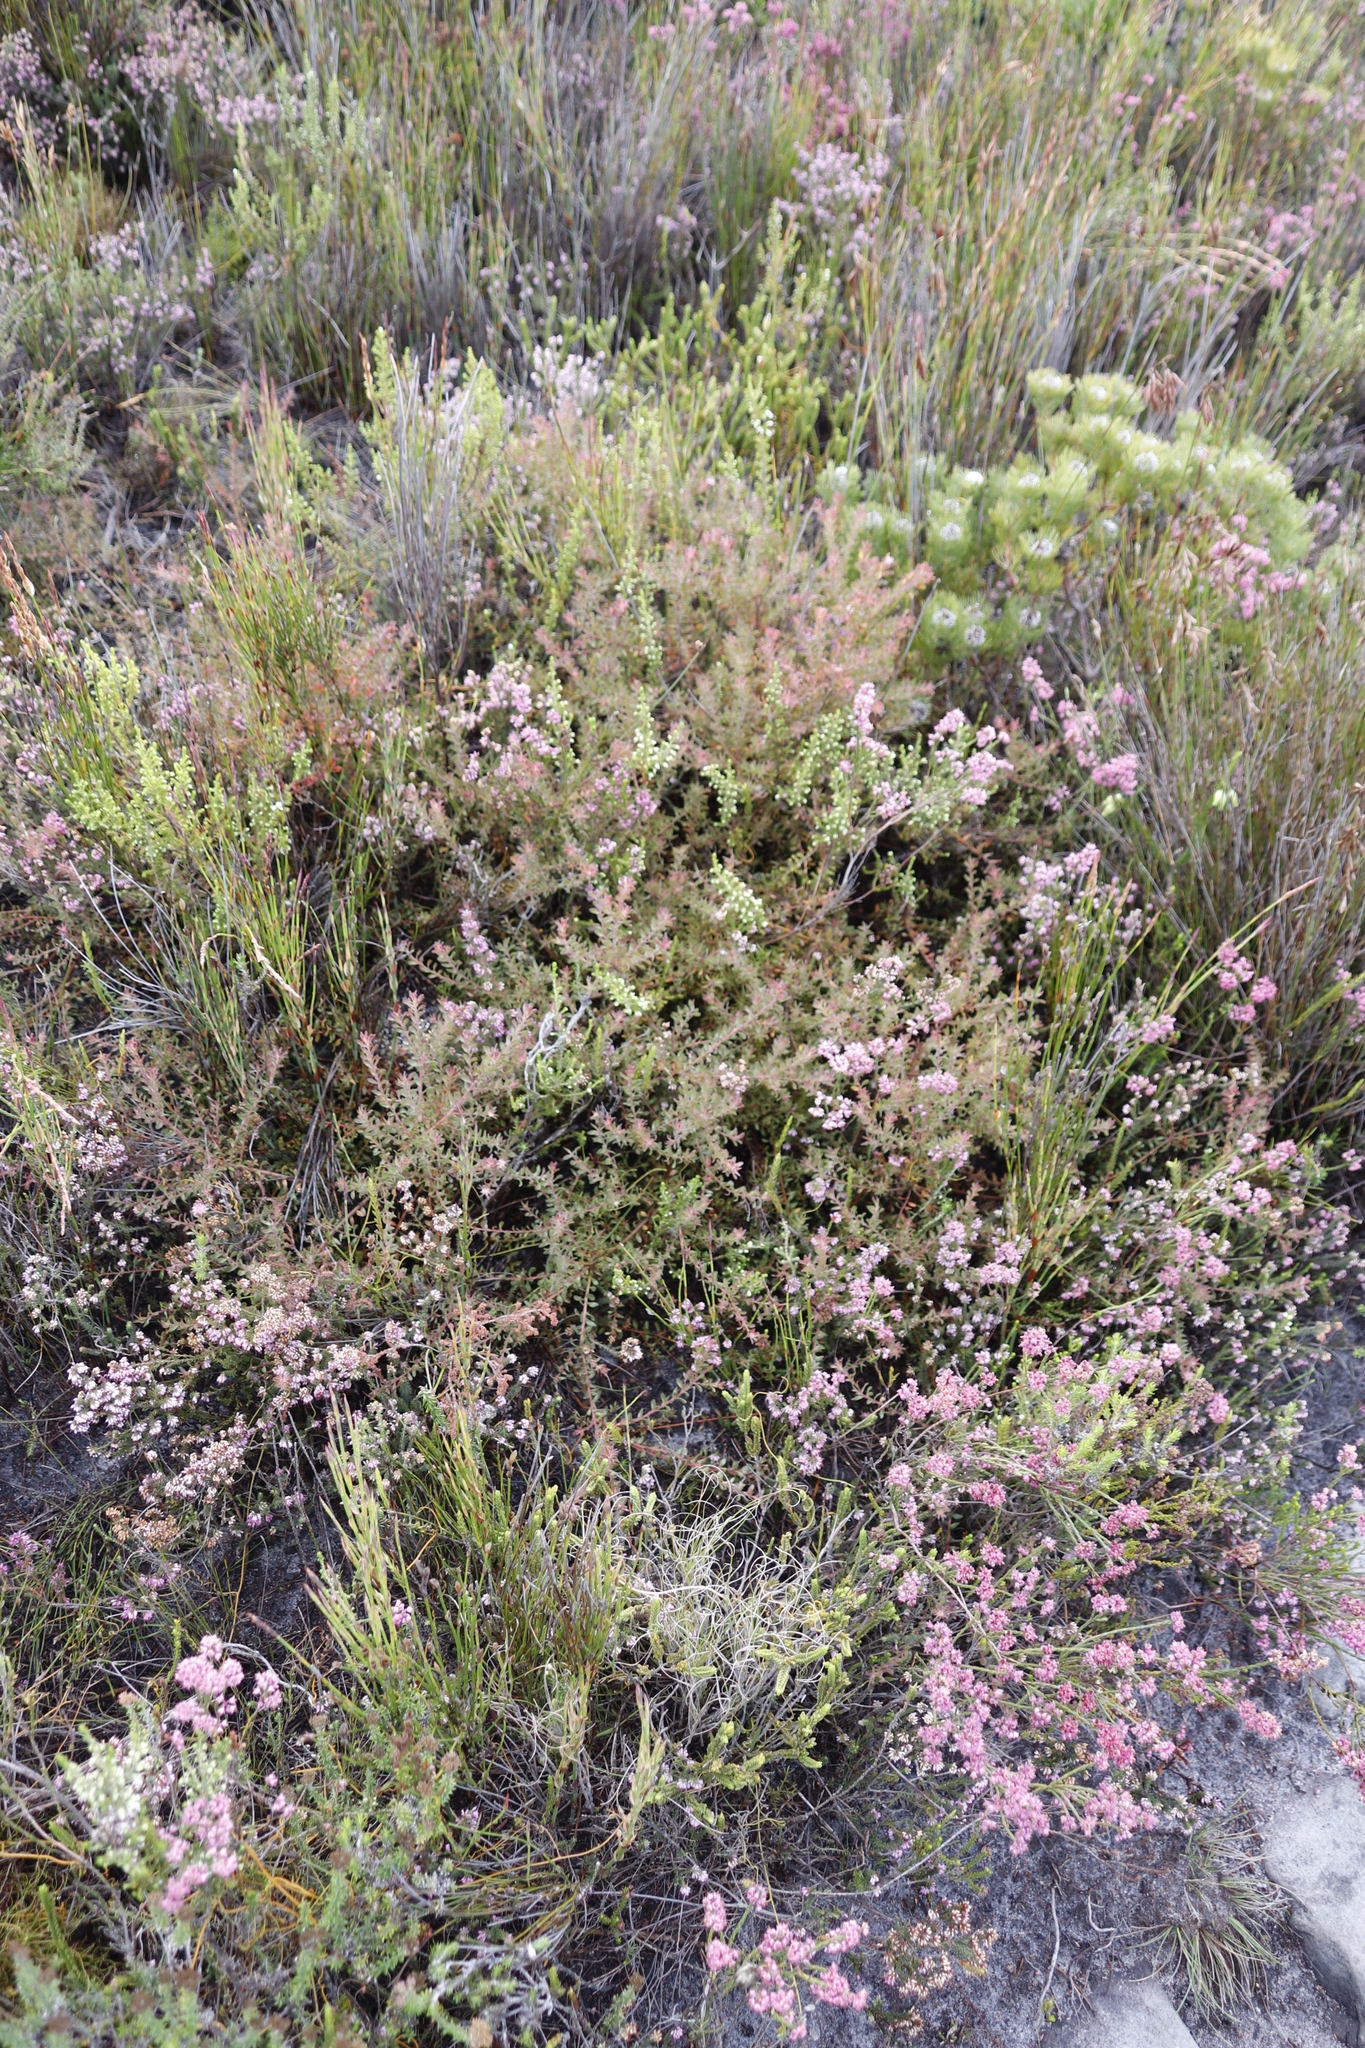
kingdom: Plantae
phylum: Tracheophyta
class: Magnoliopsida
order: Ericales
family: Ericaceae
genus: Erica
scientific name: Erica corifolia
